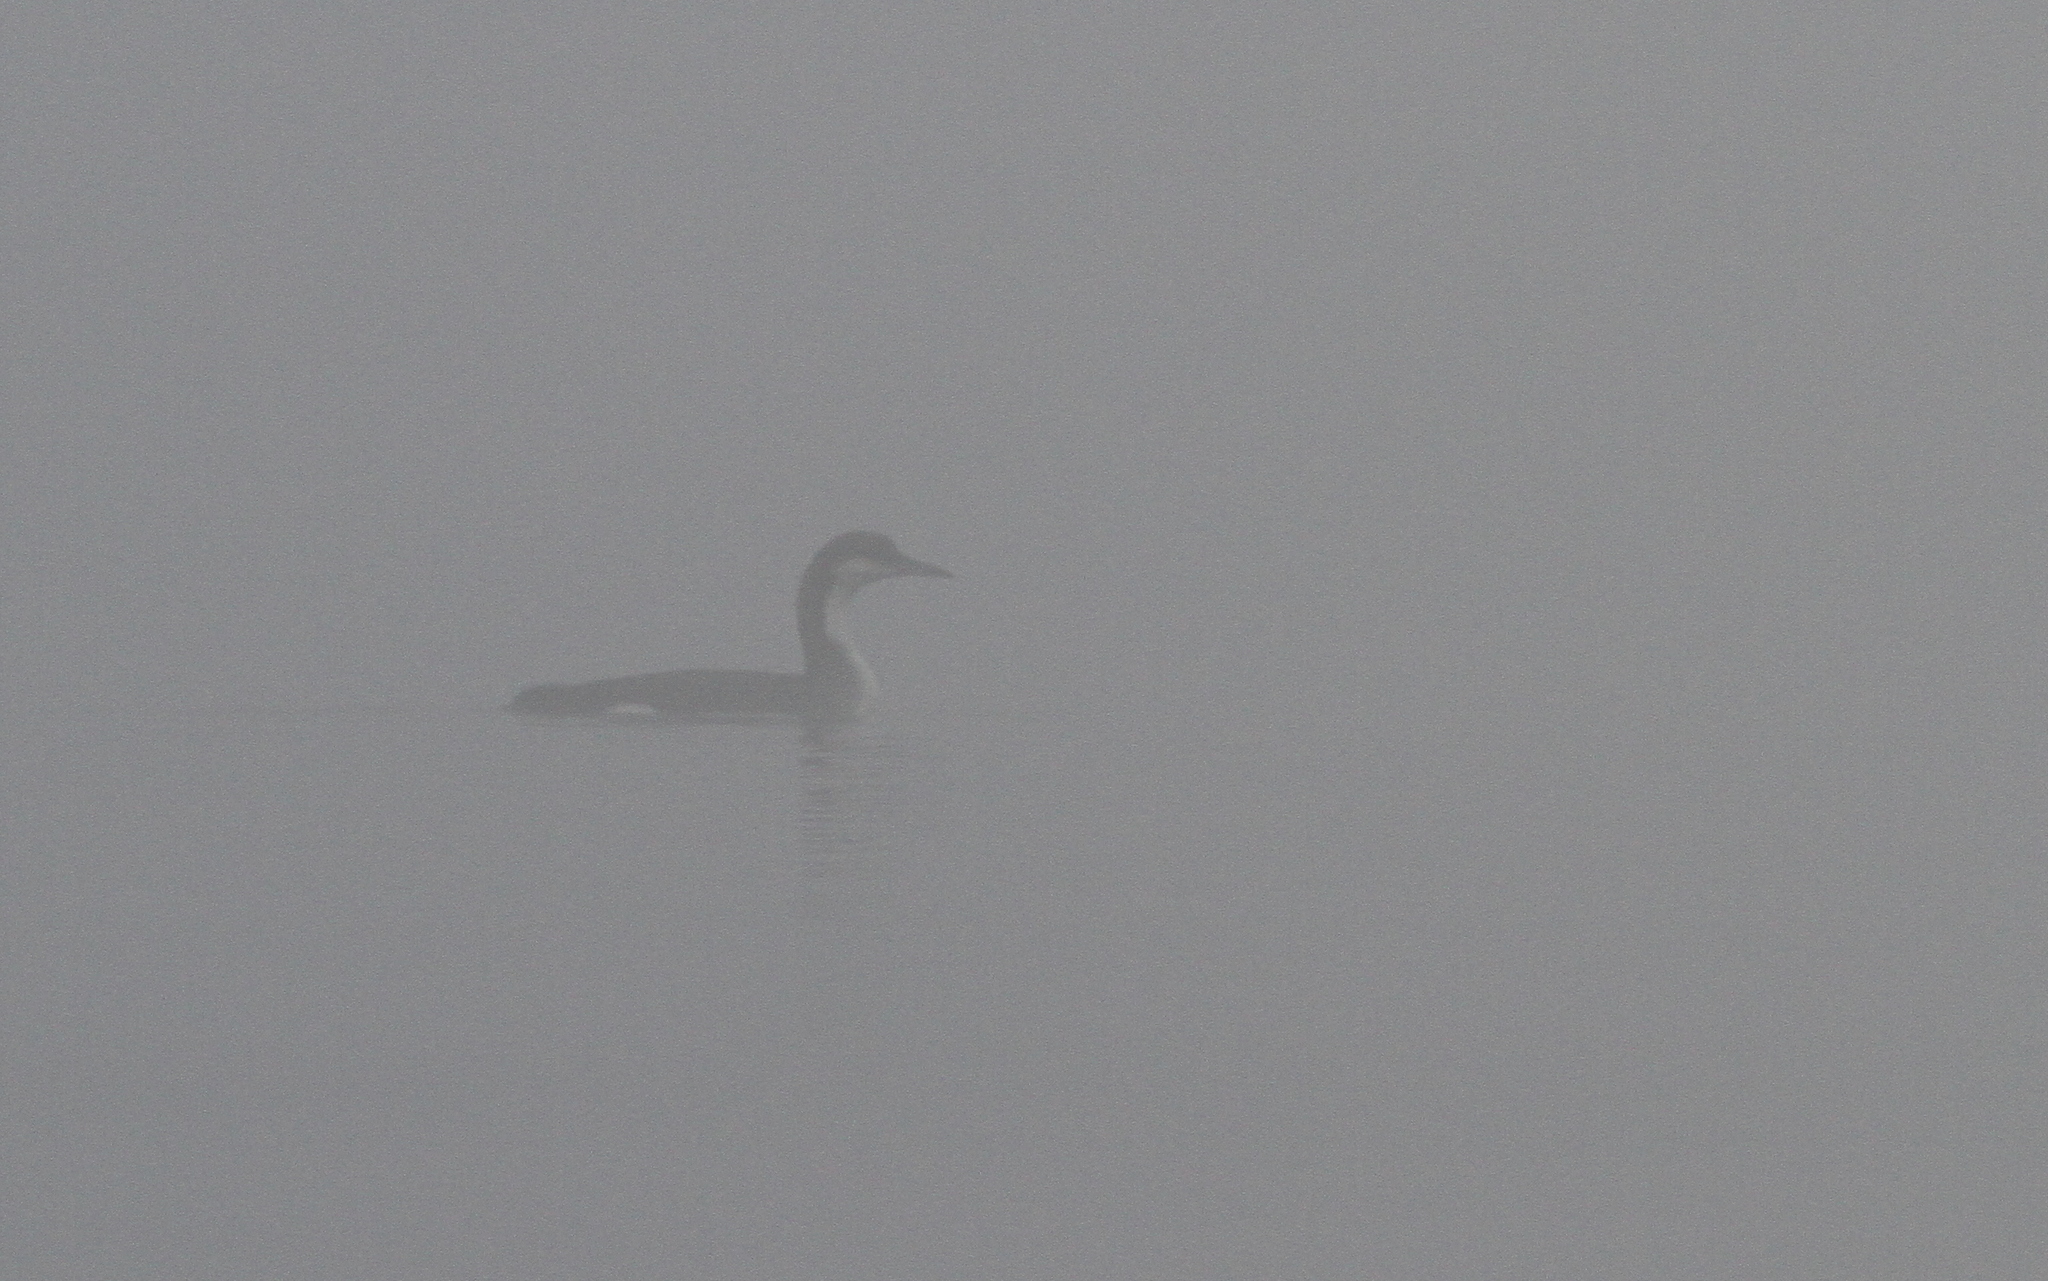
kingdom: Animalia
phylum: Chordata
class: Aves
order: Gaviiformes
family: Gaviidae
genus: Gavia
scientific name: Gavia arctica
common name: Black-throated loon
